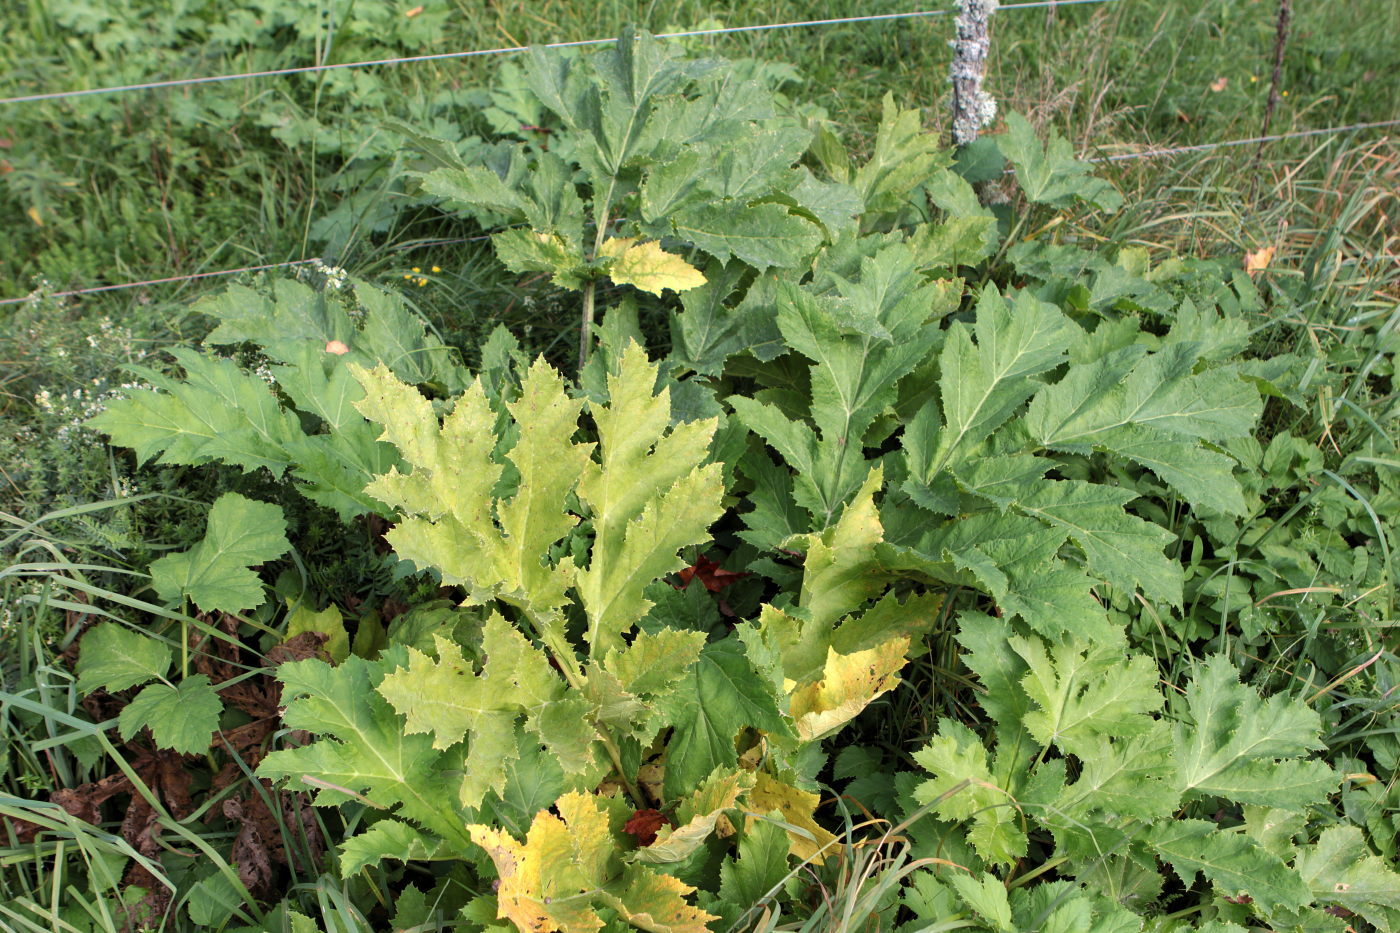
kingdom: Plantae
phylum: Tracheophyta
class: Magnoliopsida
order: Apiales
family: Apiaceae
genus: Heracleum
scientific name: Heracleum mantegazzianum
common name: Giant hogweed
